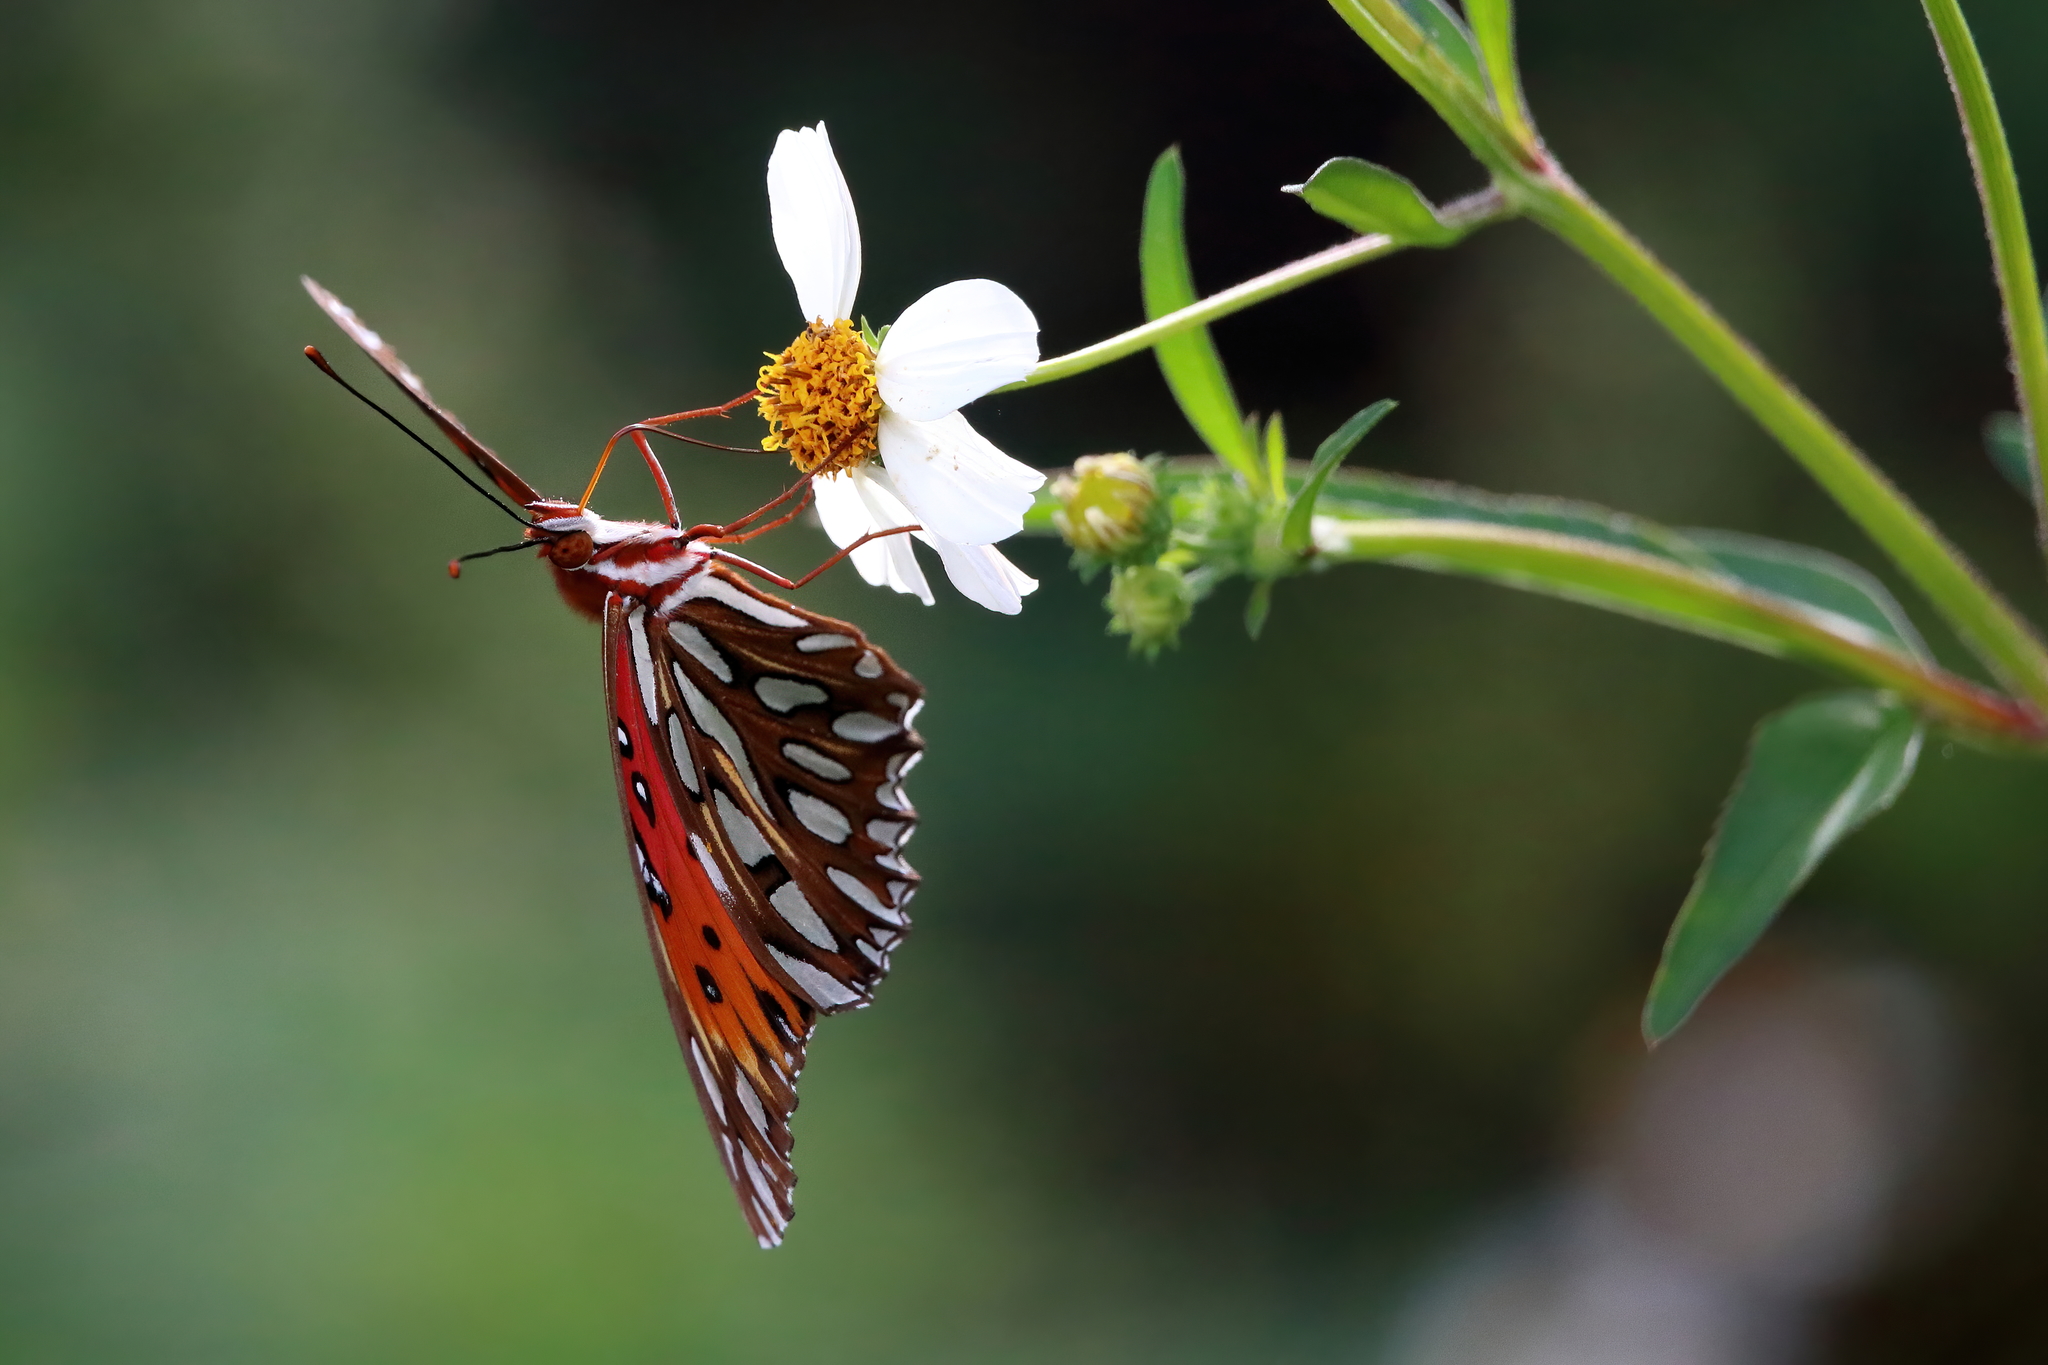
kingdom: Animalia
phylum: Arthropoda
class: Insecta
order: Lepidoptera
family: Nymphalidae
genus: Dione
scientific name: Dione vanillae
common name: Gulf fritillary
